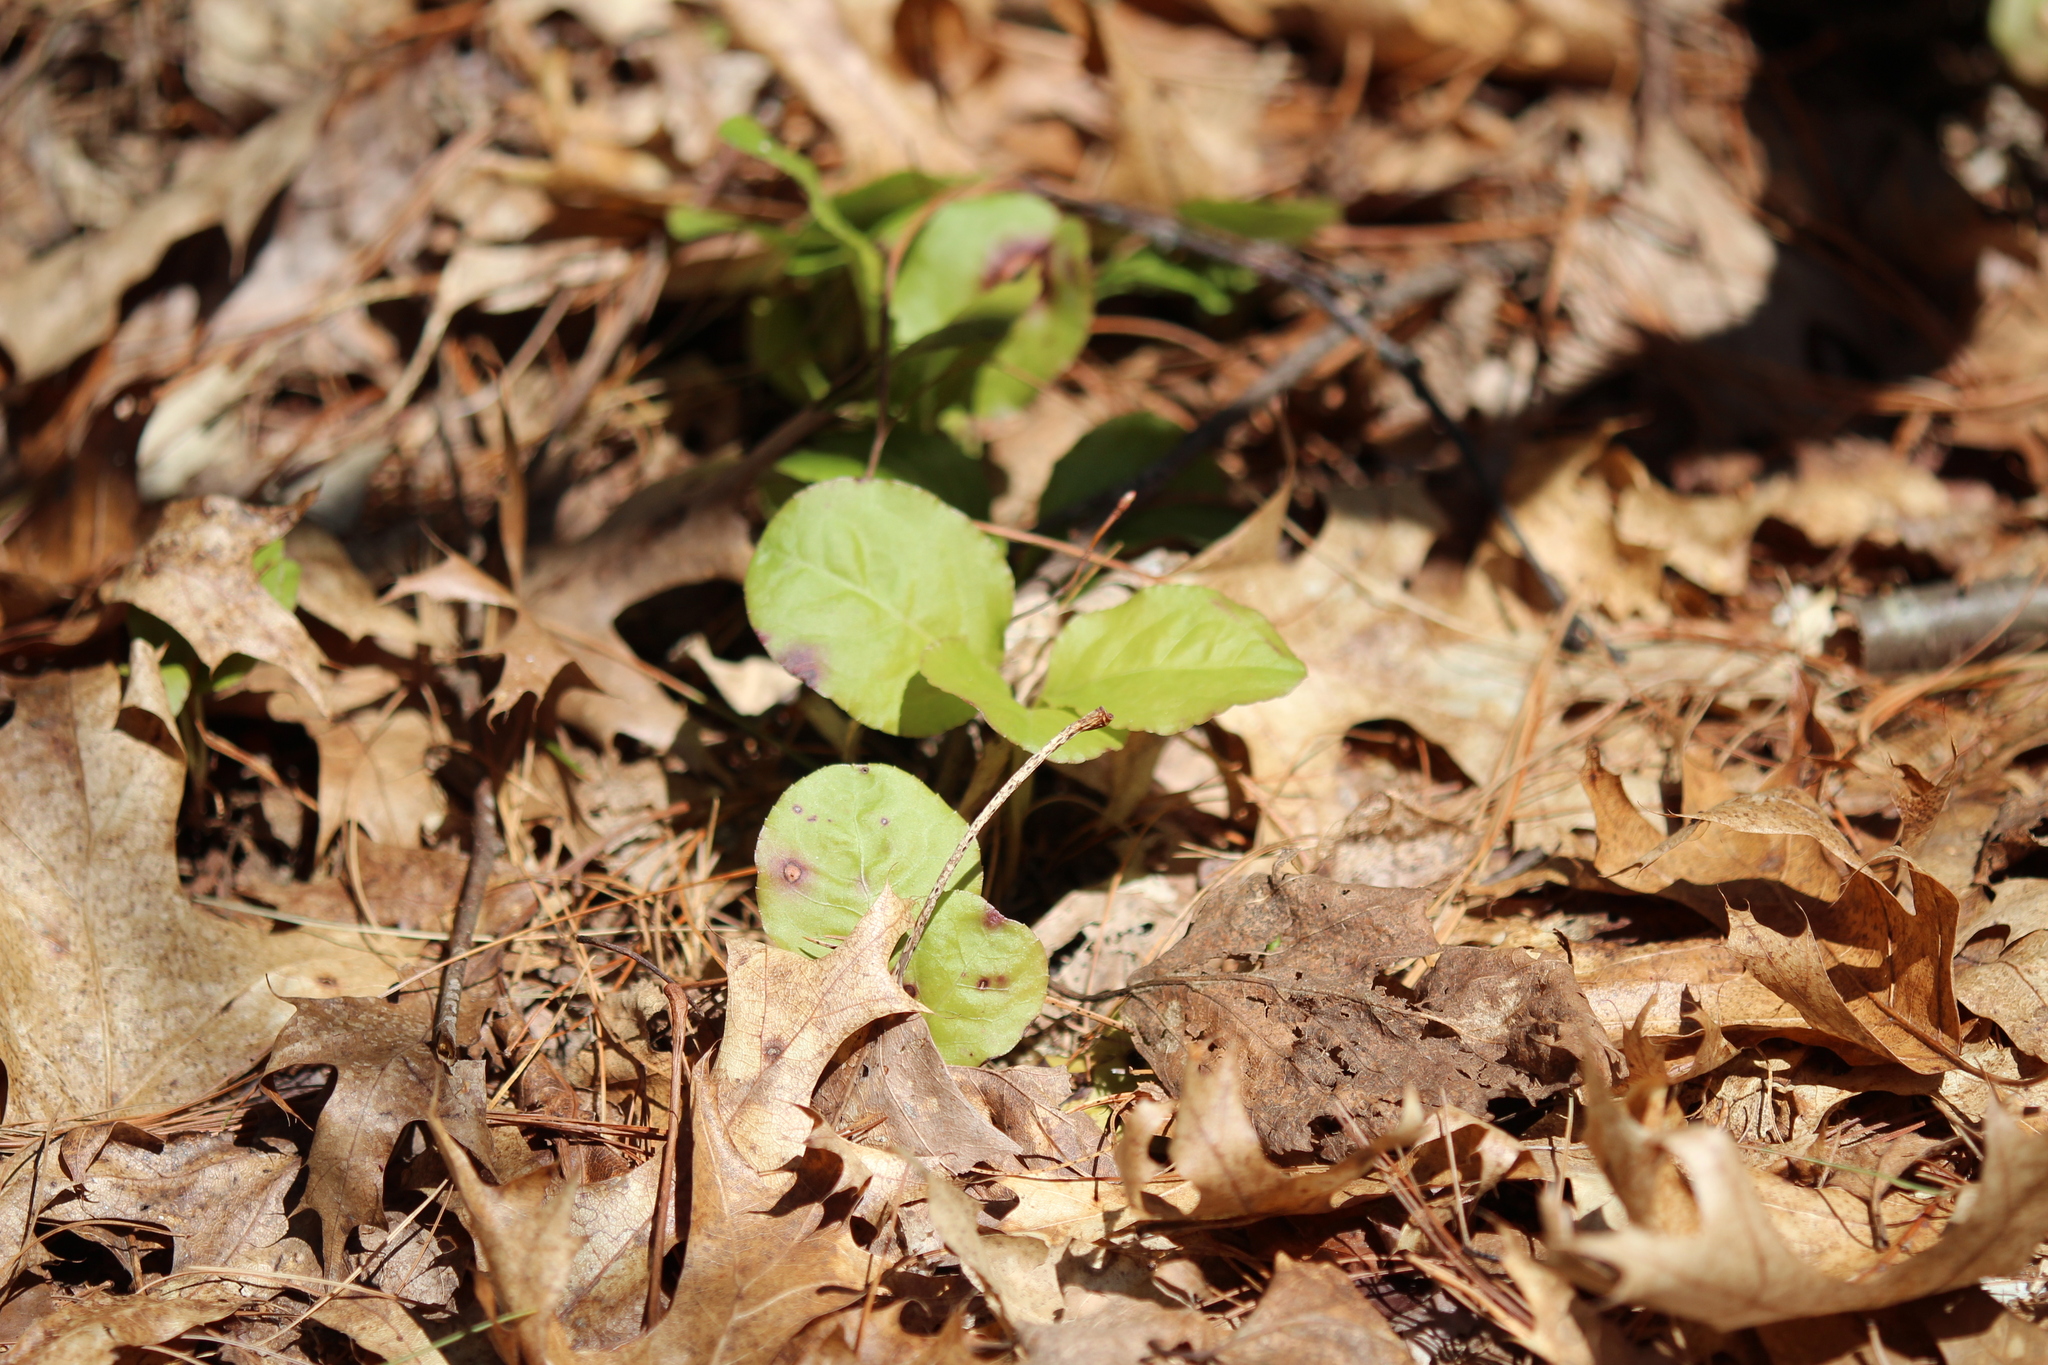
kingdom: Plantae
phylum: Tracheophyta
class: Magnoliopsida
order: Ericales
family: Ericaceae
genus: Pyrola
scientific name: Pyrola elliptica
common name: Shinleaf
